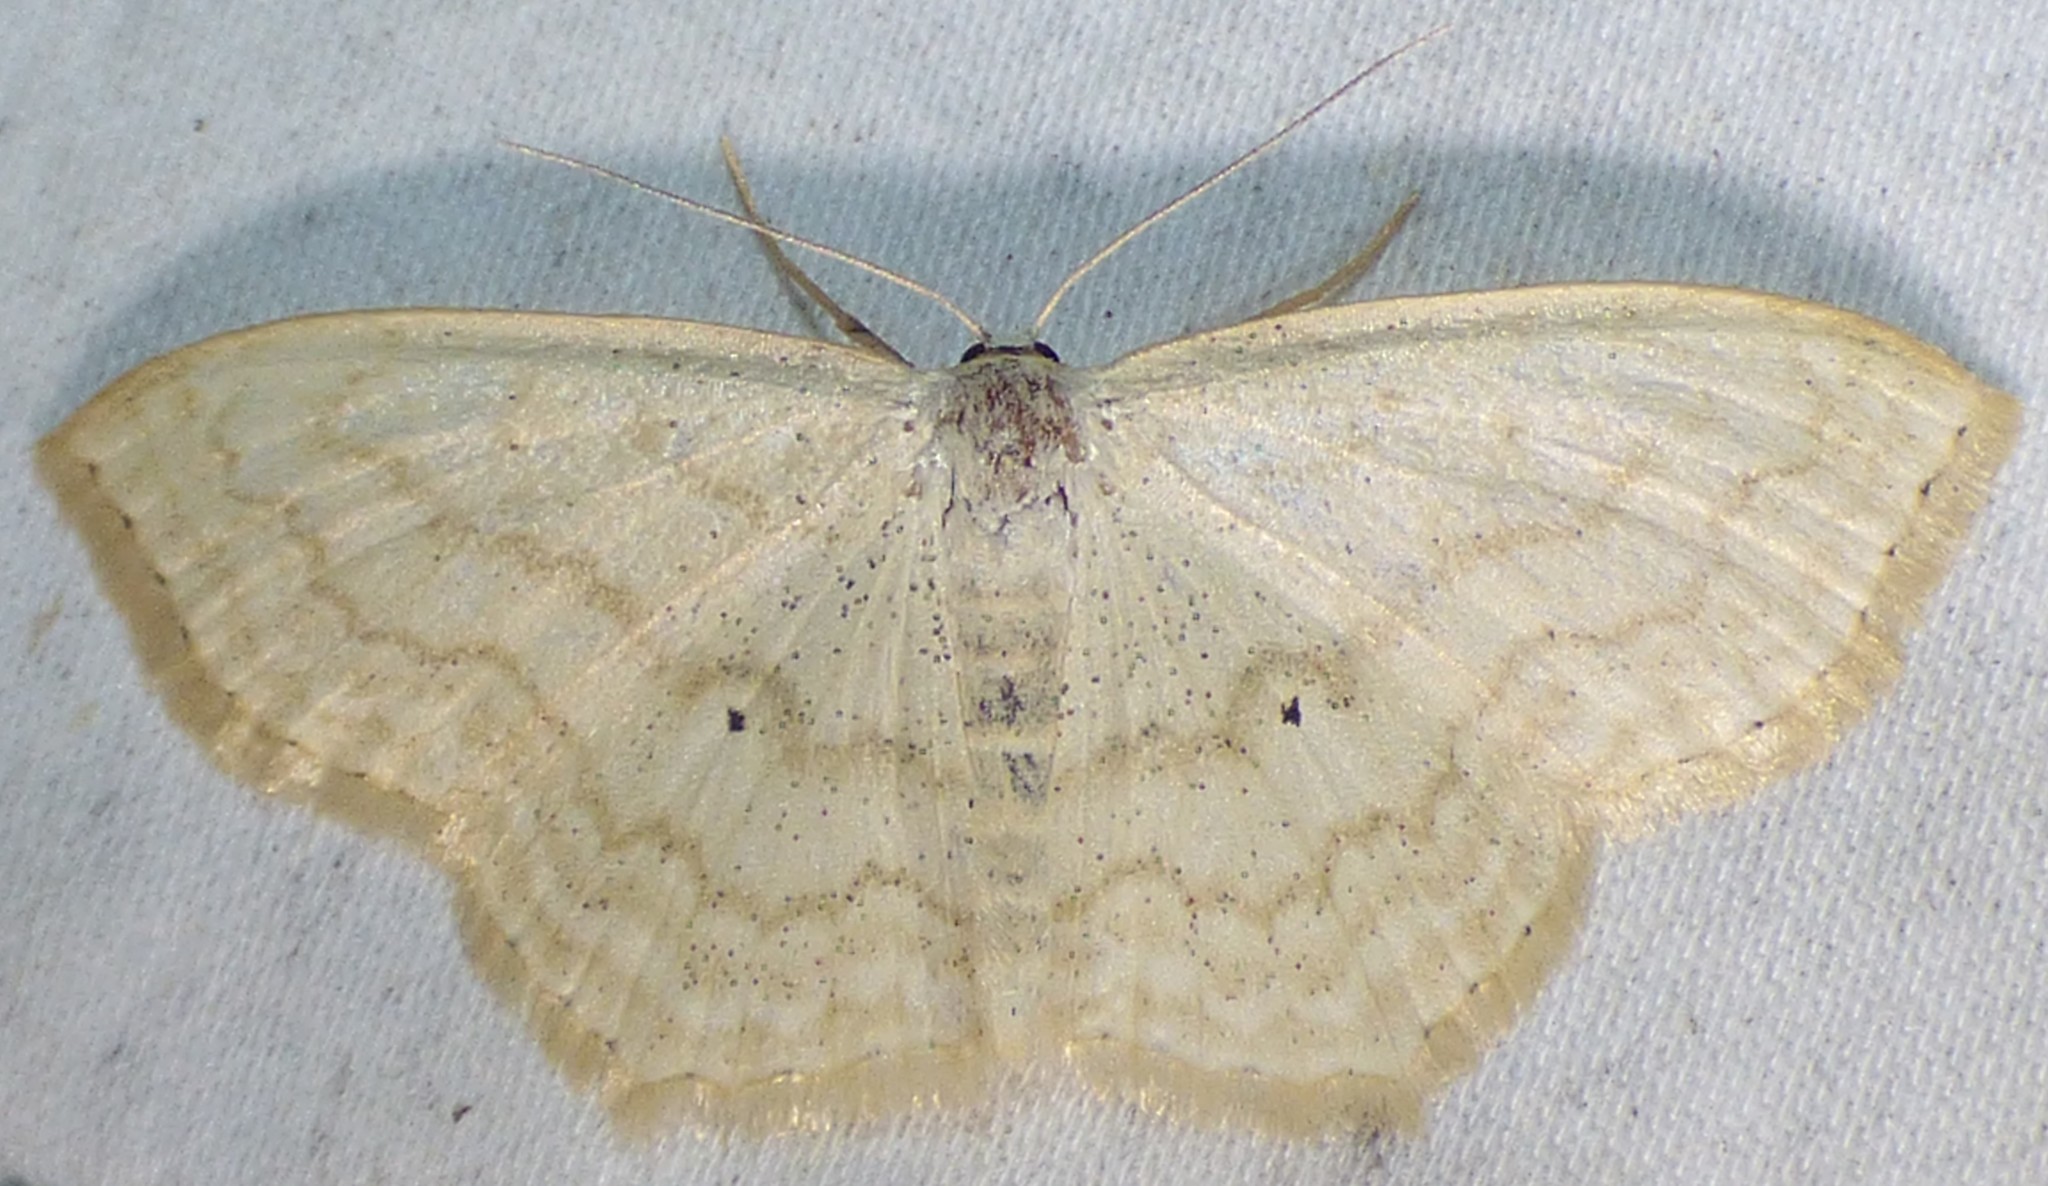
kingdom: Animalia
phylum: Arthropoda
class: Insecta
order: Lepidoptera
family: Geometridae
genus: Scopula
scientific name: Scopula limboundata
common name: Large lace border
